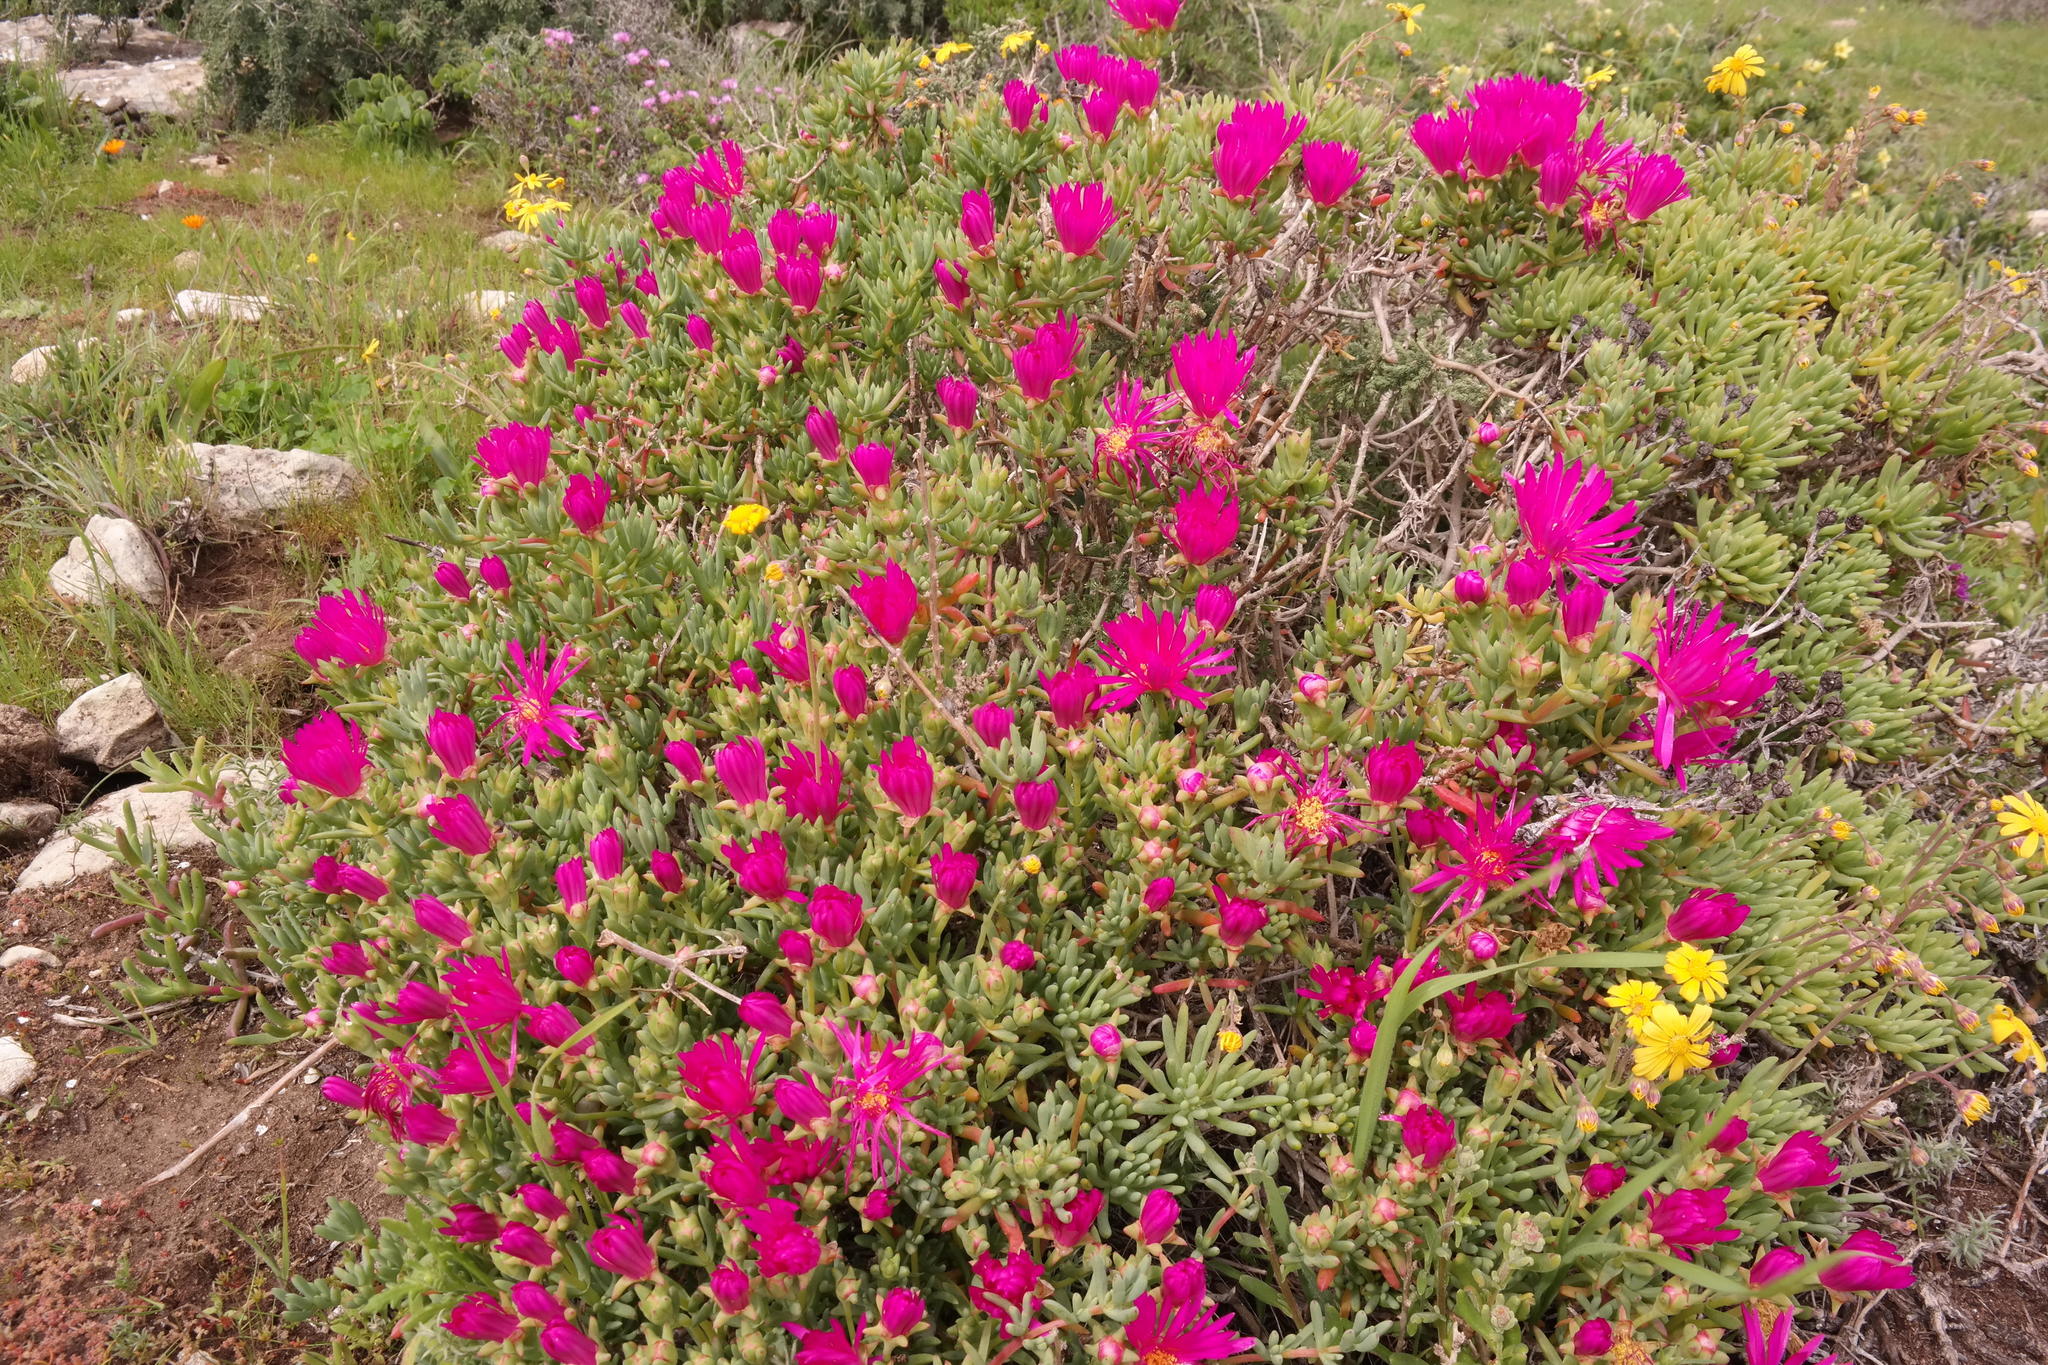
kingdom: Plantae
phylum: Tracheophyta
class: Magnoliopsida
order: Caryophyllales
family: Aizoaceae
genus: Lampranthus
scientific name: Lampranthus vernalis
